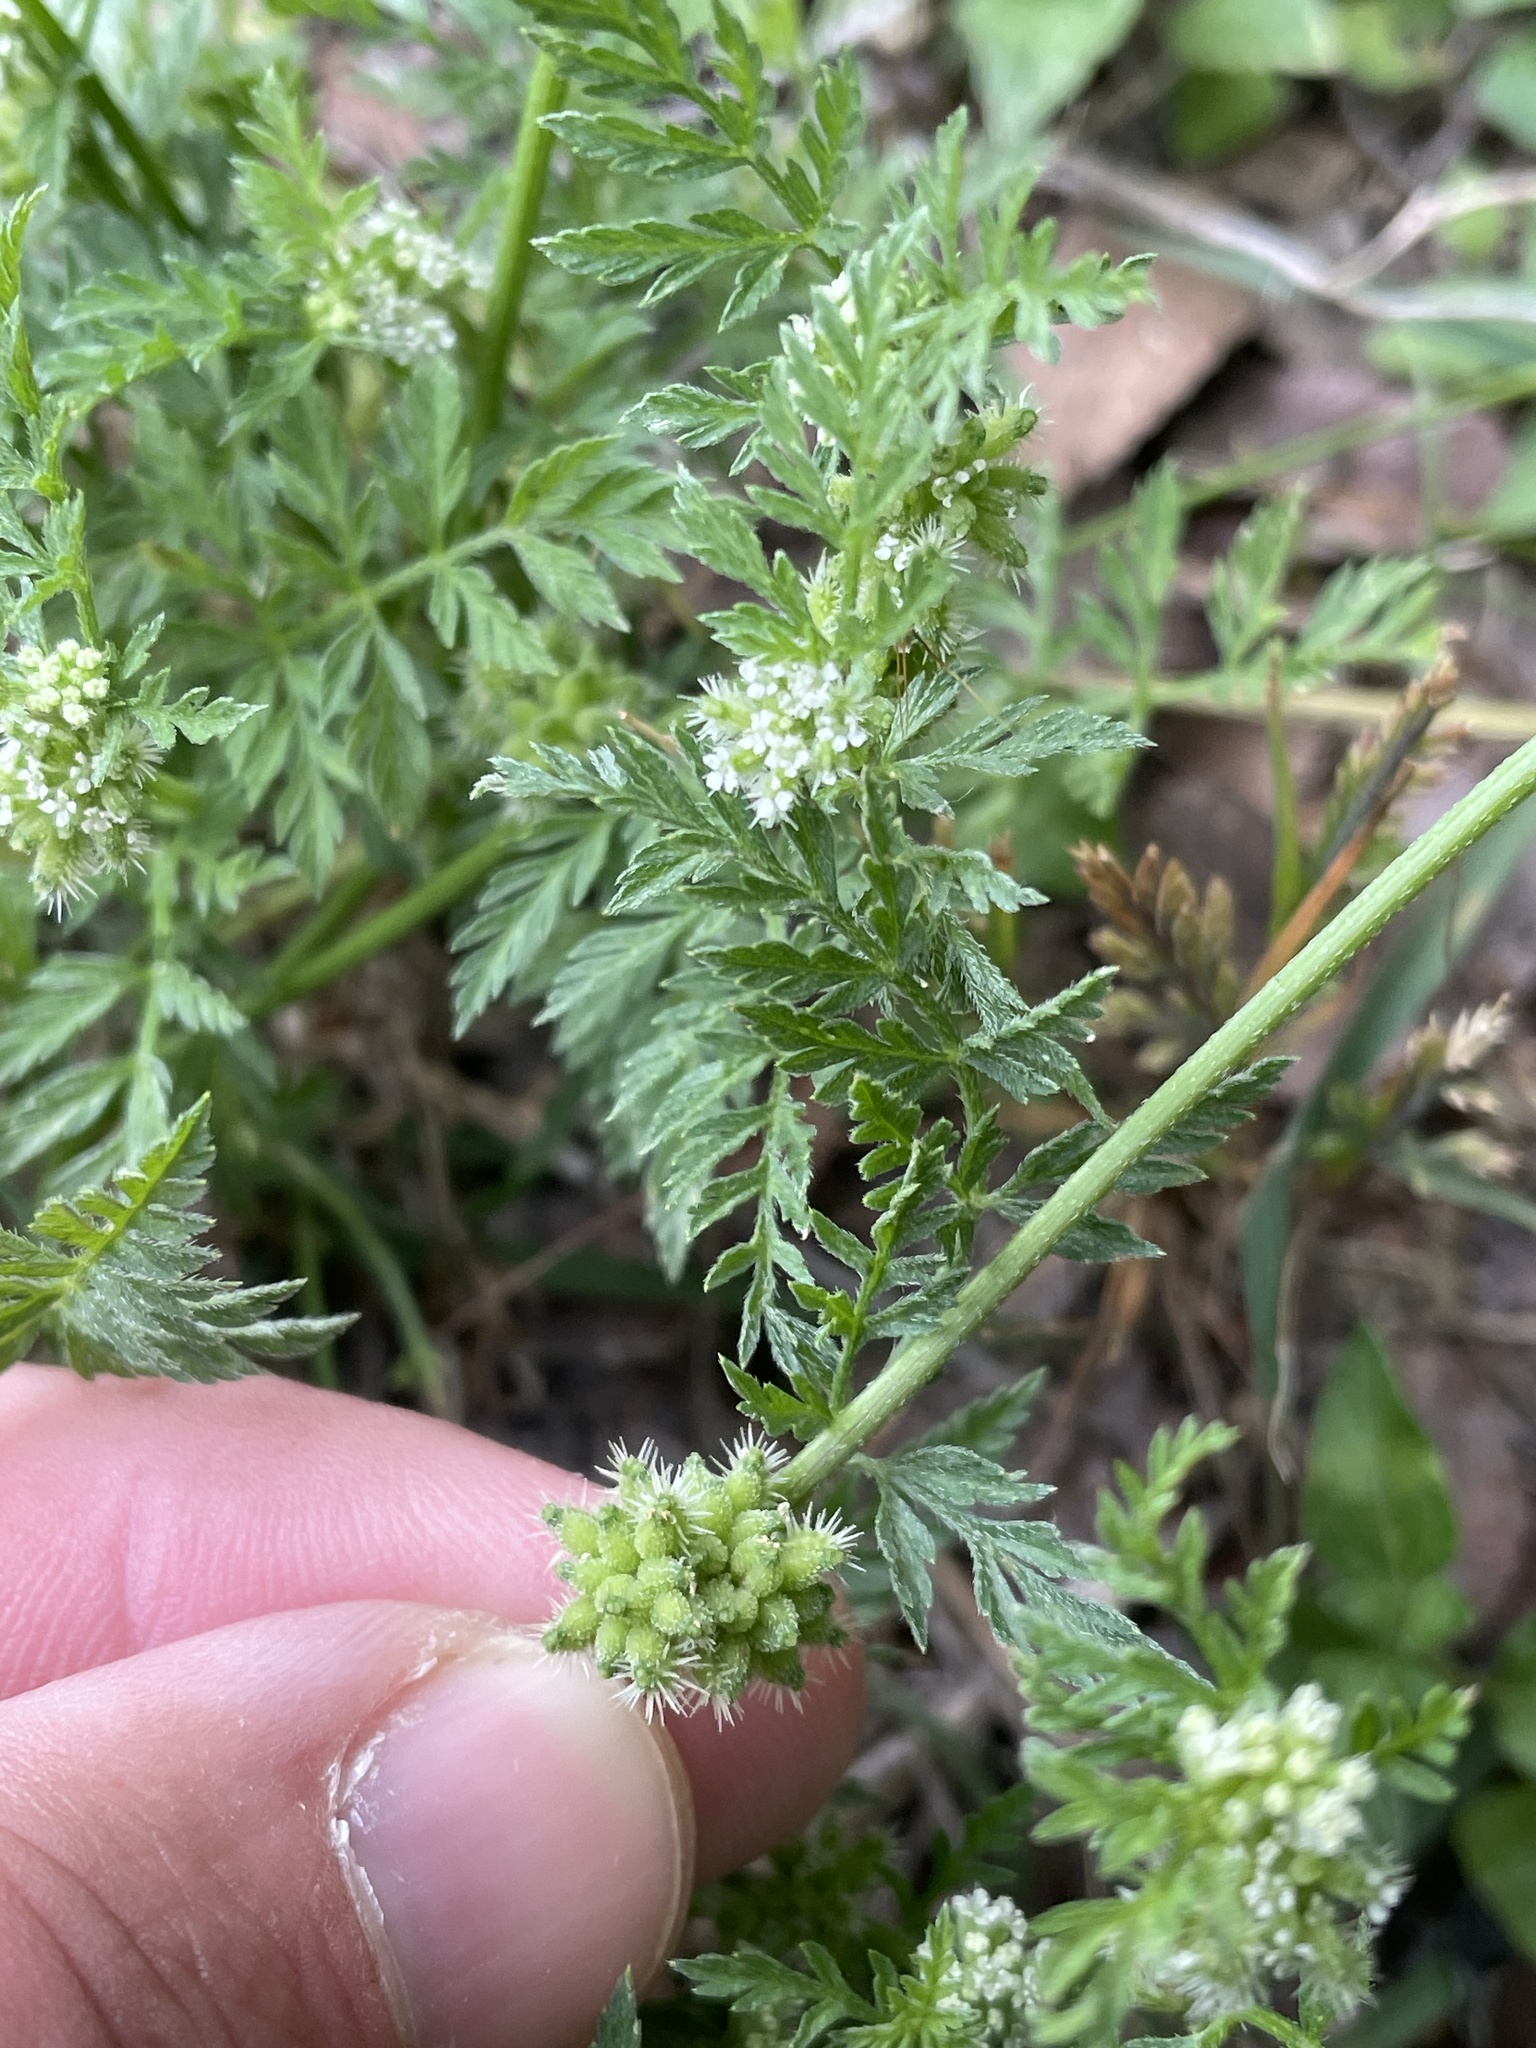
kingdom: Plantae
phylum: Tracheophyta
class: Magnoliopsida
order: Apiales
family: Apiaceae
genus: Torilis
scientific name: Torilis nodosa
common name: Knotted hedge-parsley
